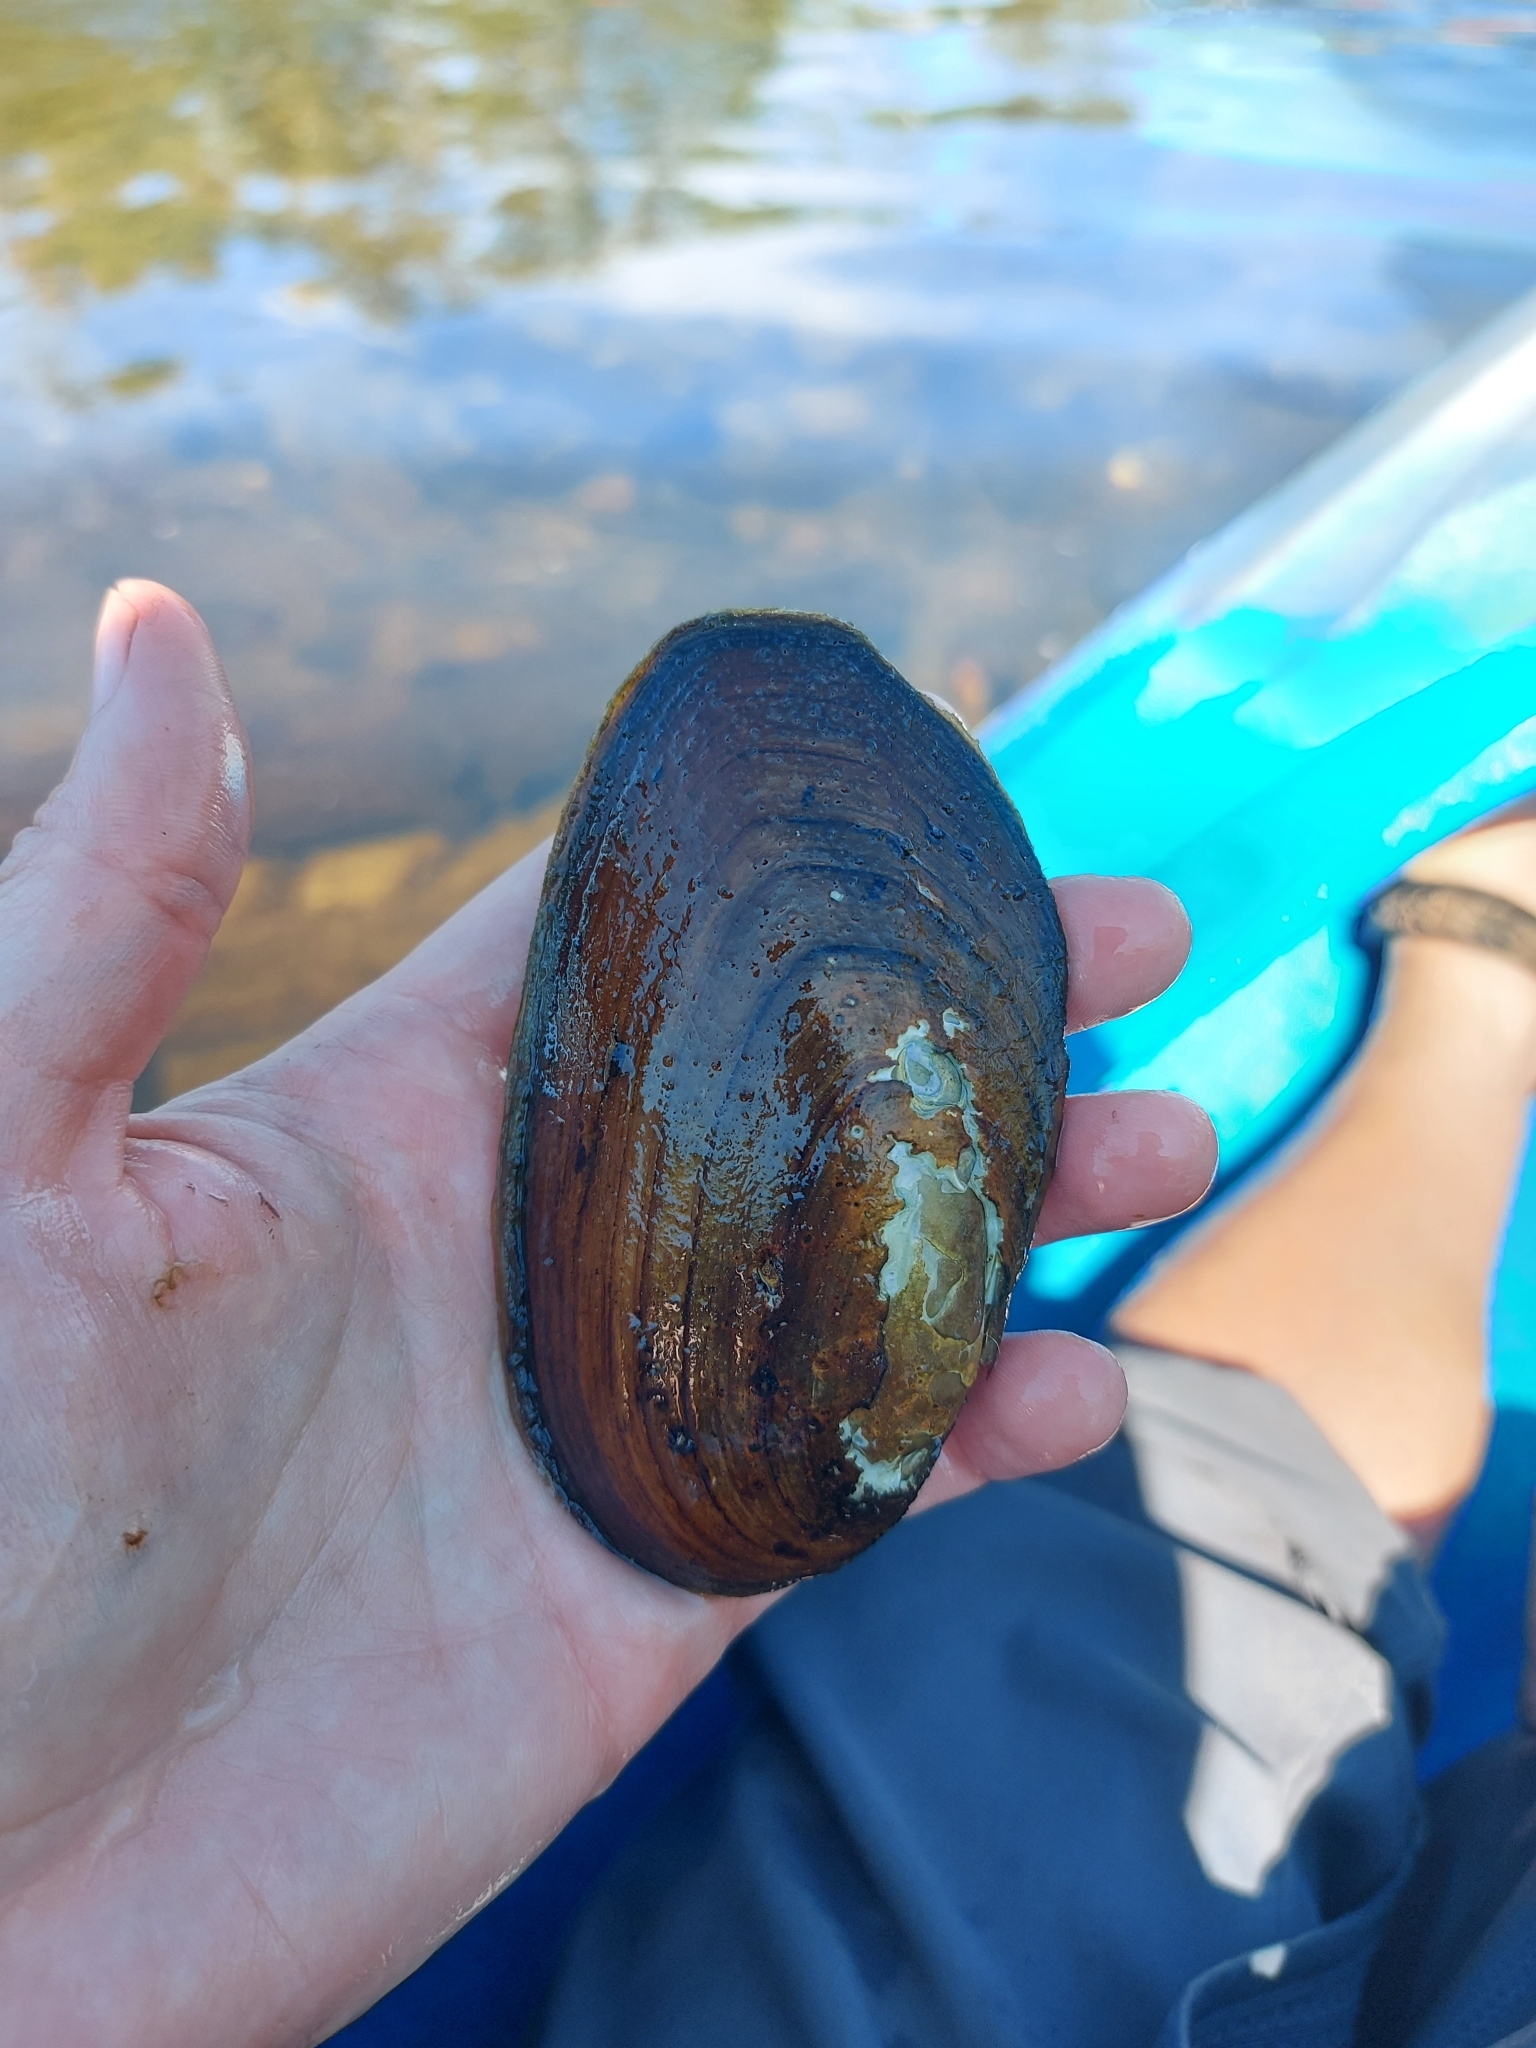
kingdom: Animalia
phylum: Mollusca
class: Bivalvia
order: Unionida
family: Unionidae
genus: Elliptio
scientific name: Elliptio complanata
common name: Eastern elliptio
